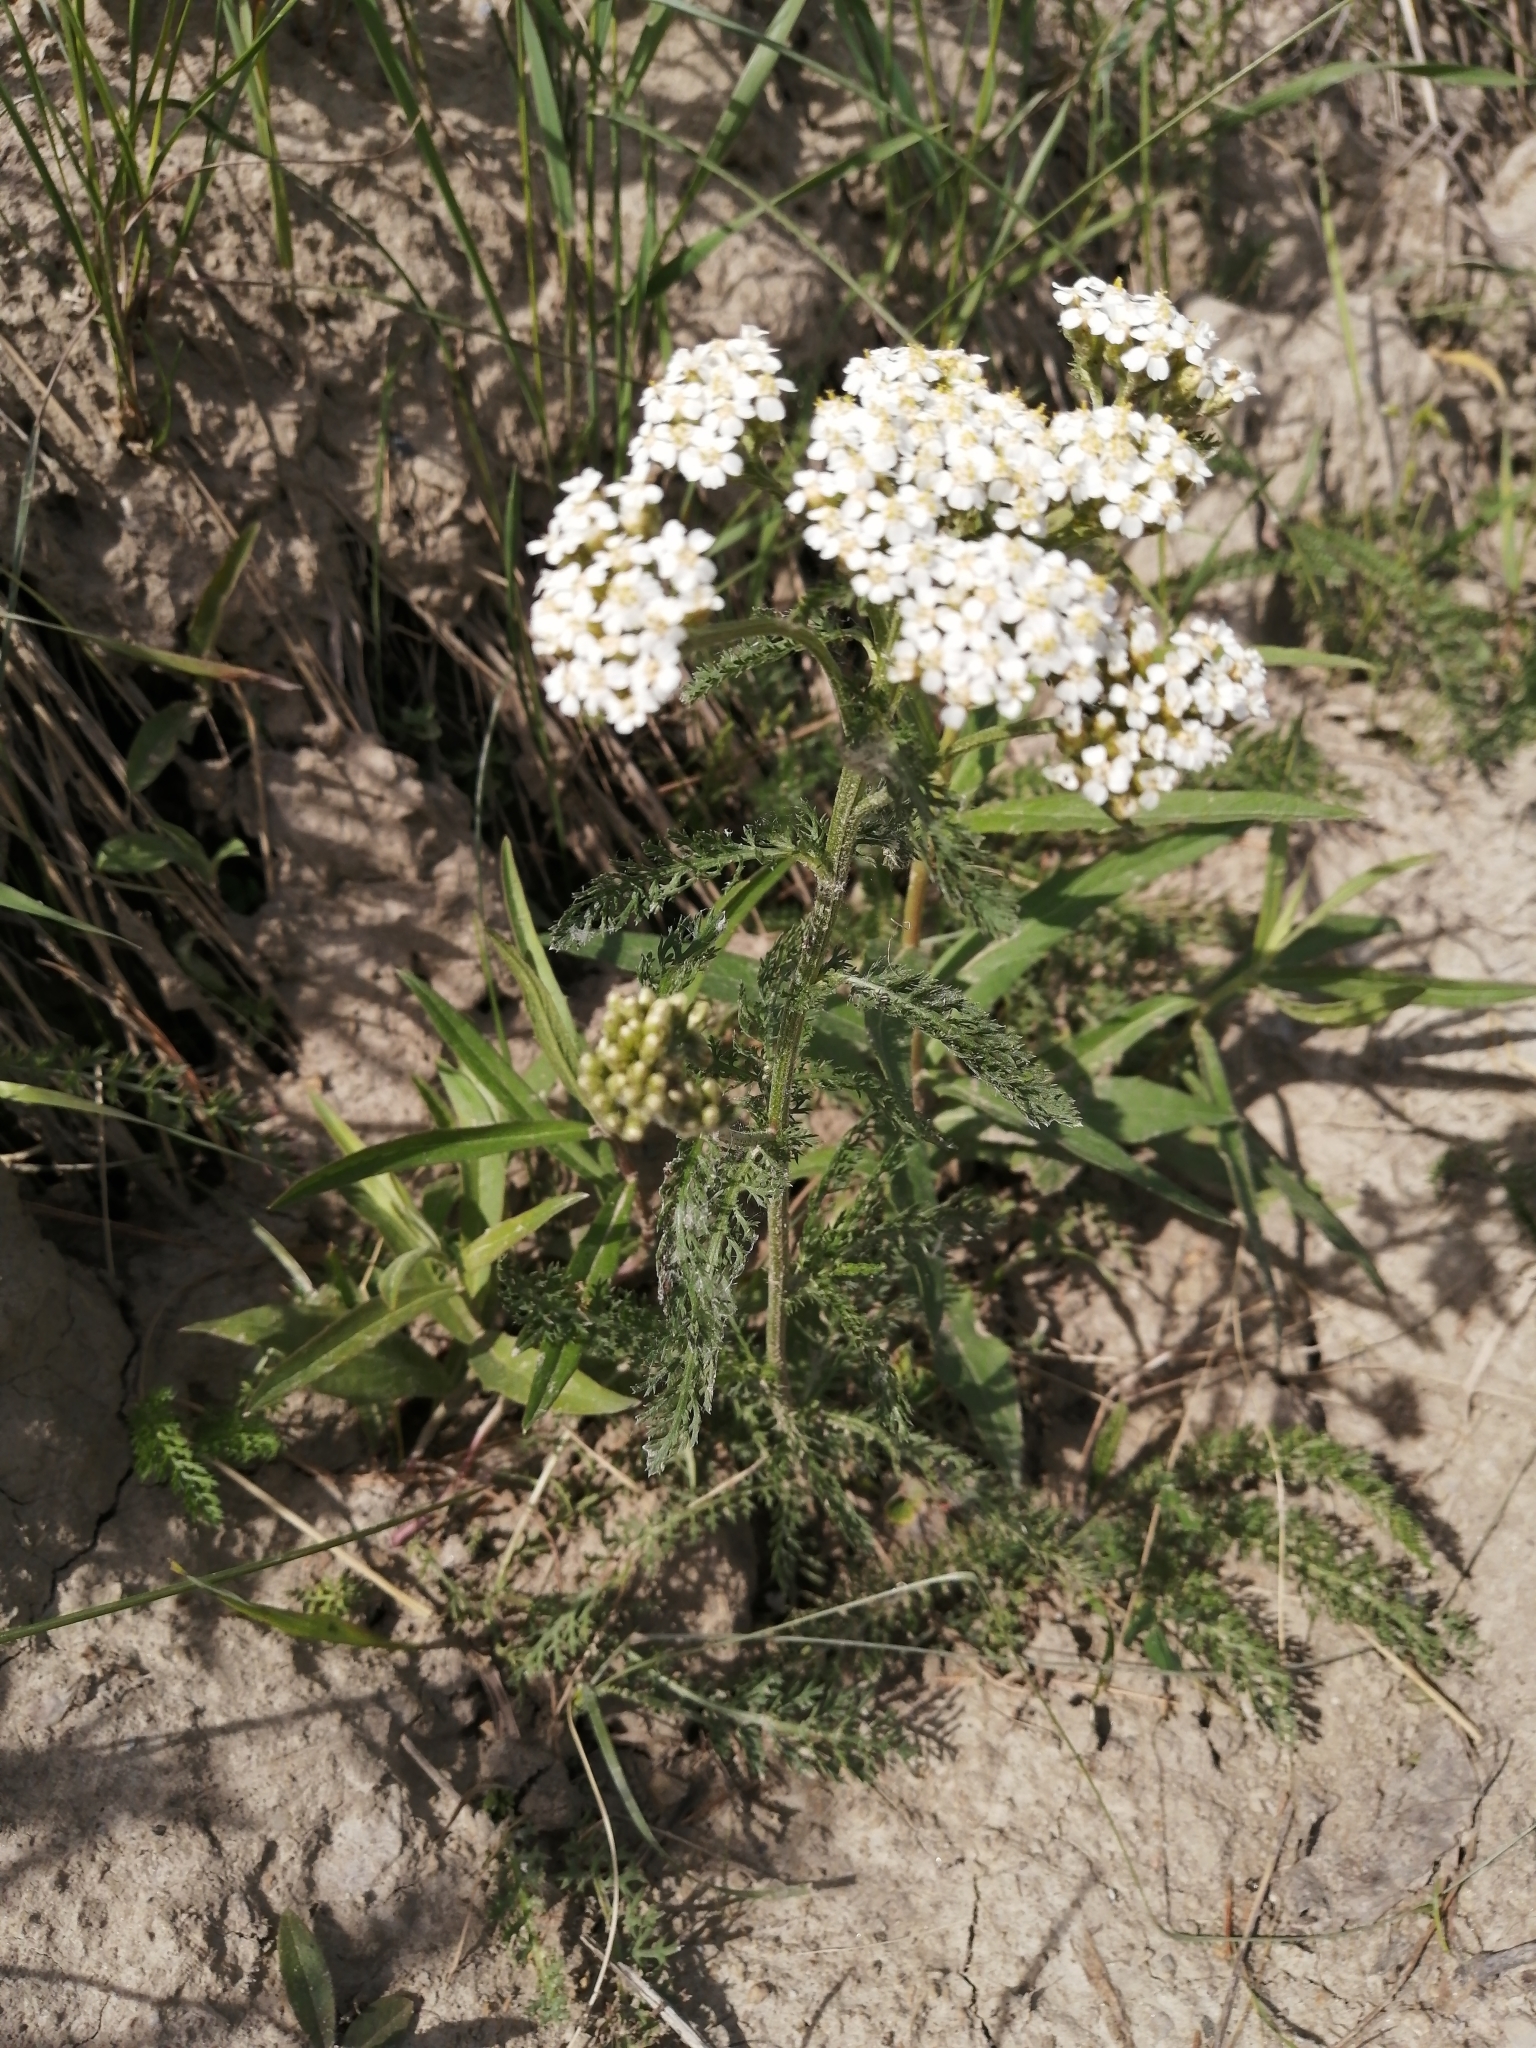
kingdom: Plantae
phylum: Tracheophyta
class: Magnoliopsida
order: Asterales
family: Asteraceae
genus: Achillea
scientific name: Achillea millefolium
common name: Yarrow
